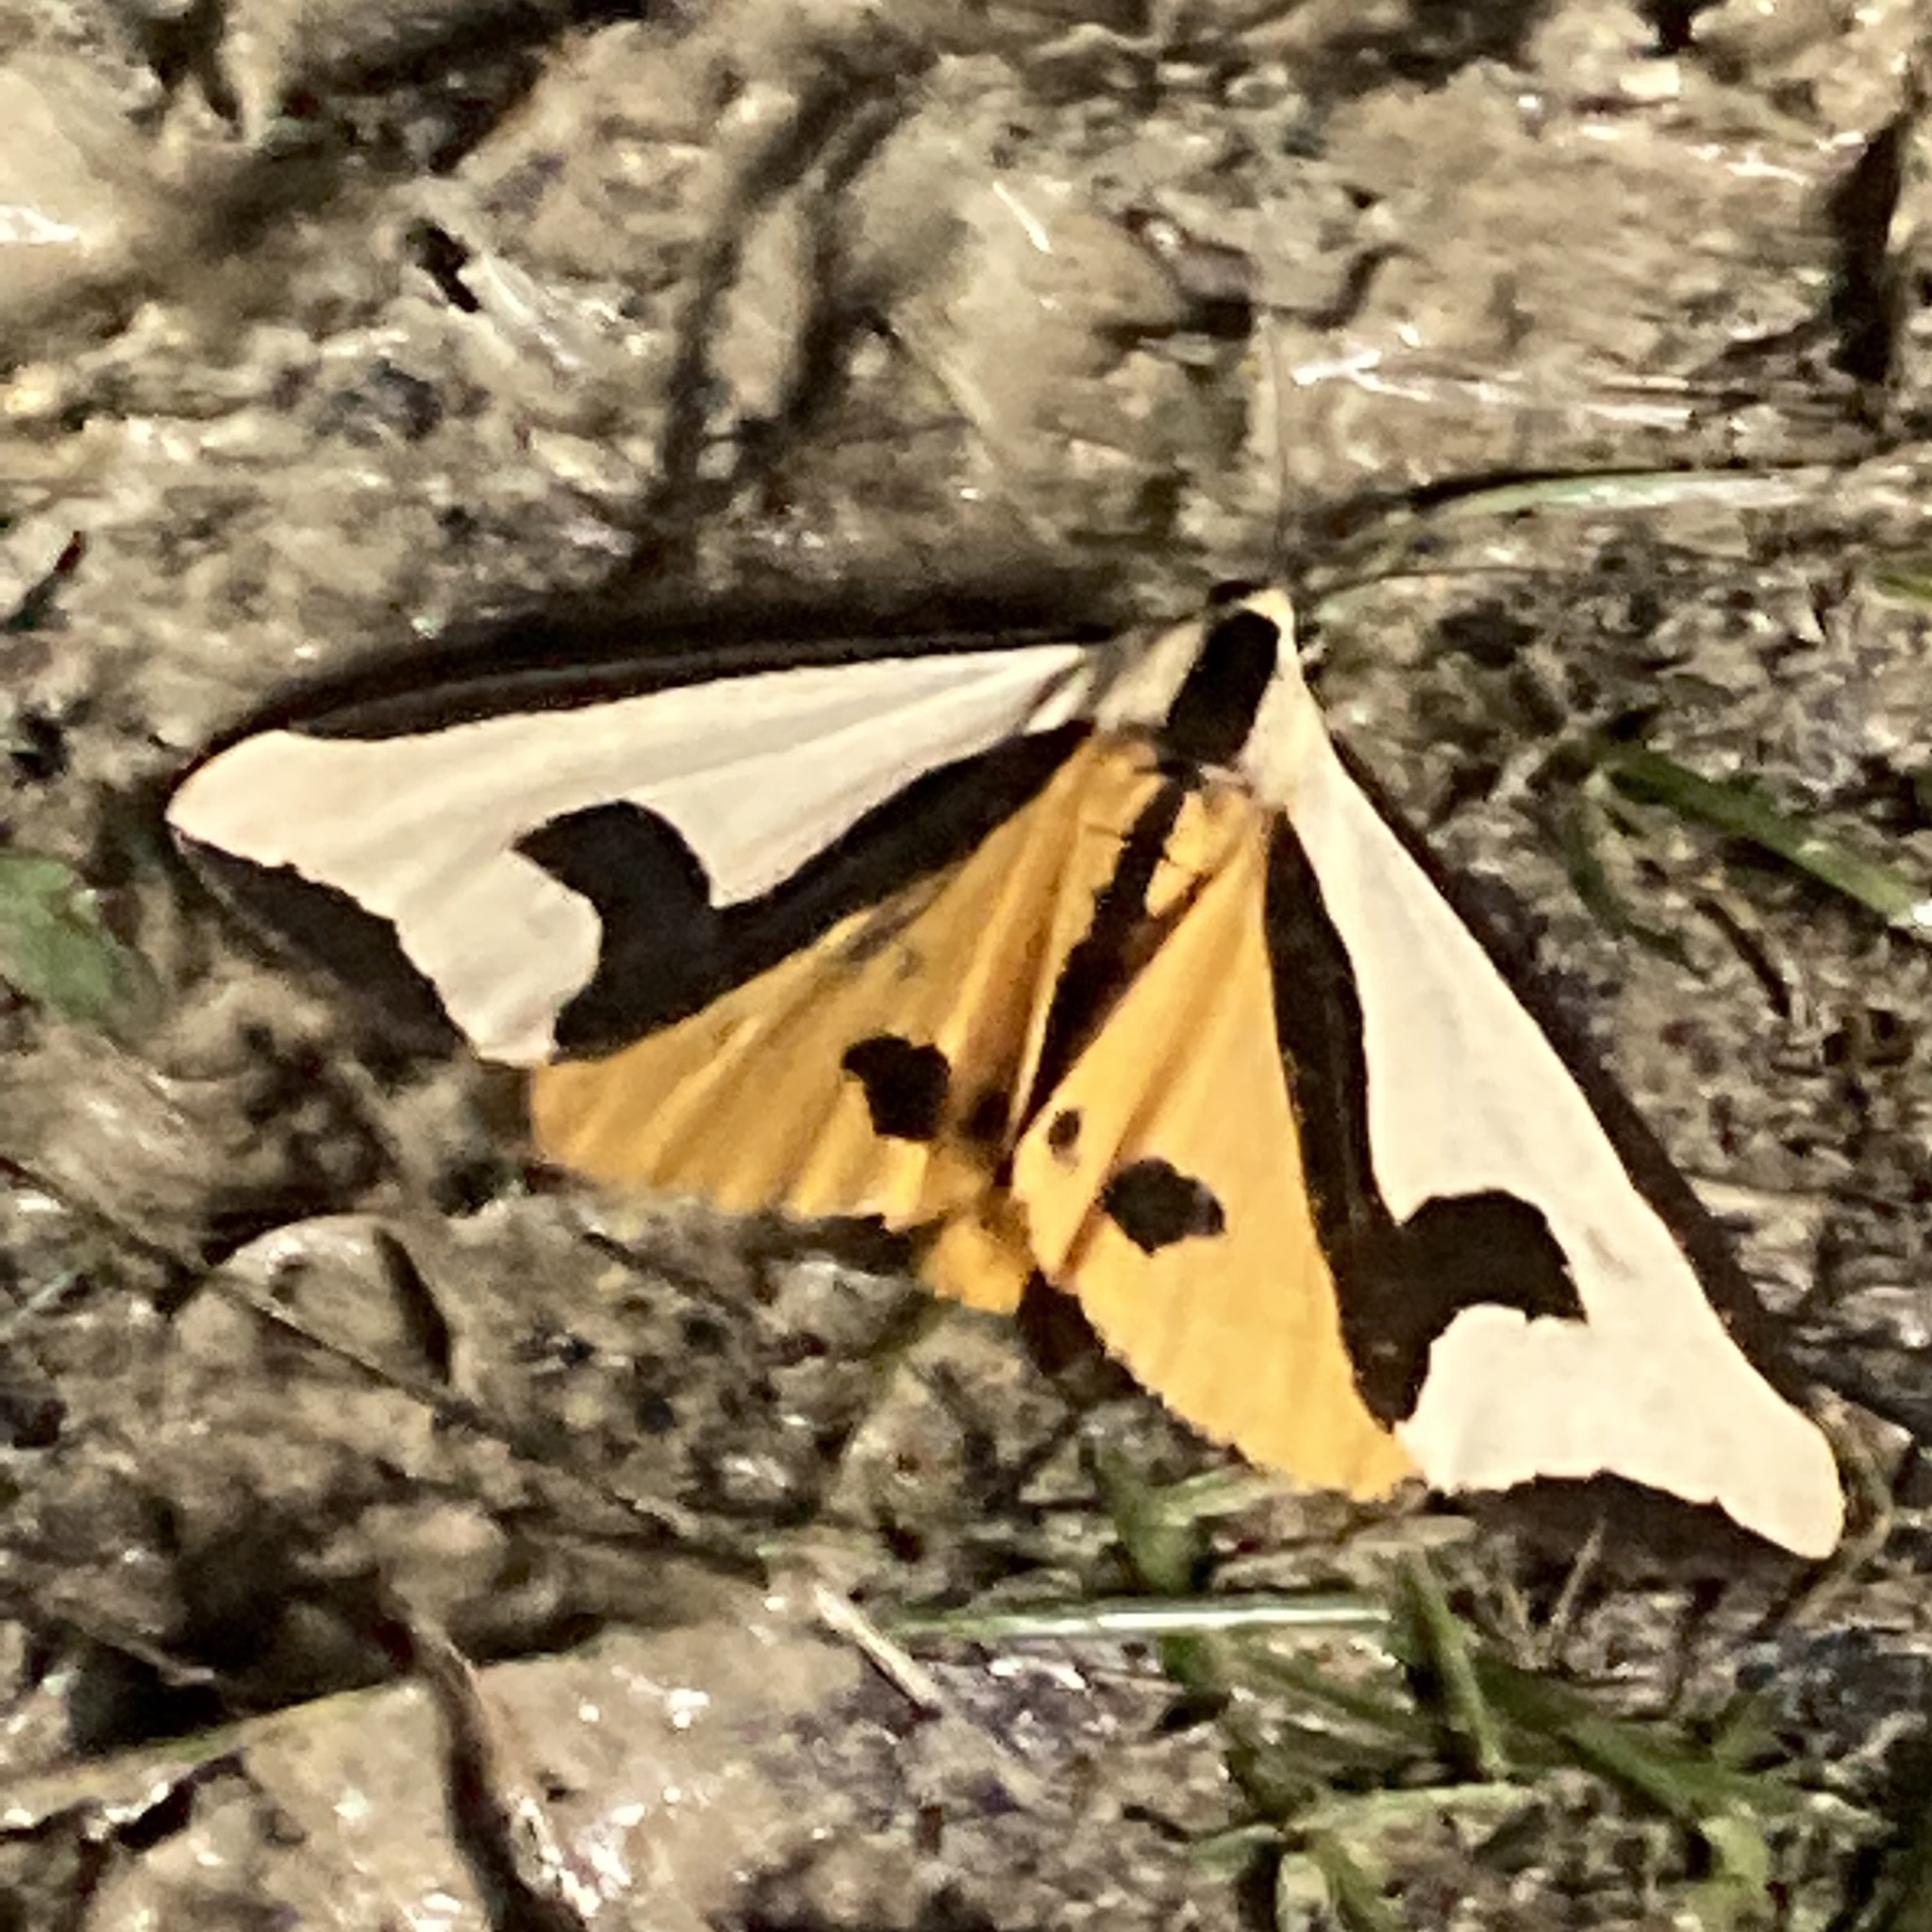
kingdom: Animalia
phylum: Arthropoda
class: Insecta
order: Lepidoptera
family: Erebidae
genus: Haploa
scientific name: Haploa clymene
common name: Clymene moth
